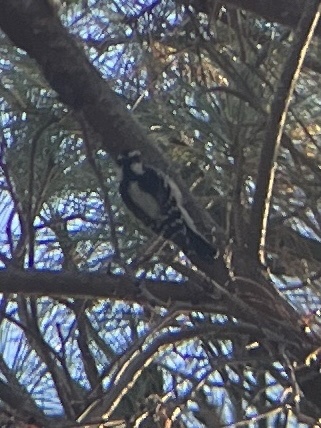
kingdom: Animalia
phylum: Chordata
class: Aves
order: Piciformes
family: Picidae
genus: Dryobates
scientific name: Dryobates pubescens
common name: Downy woodpecker
